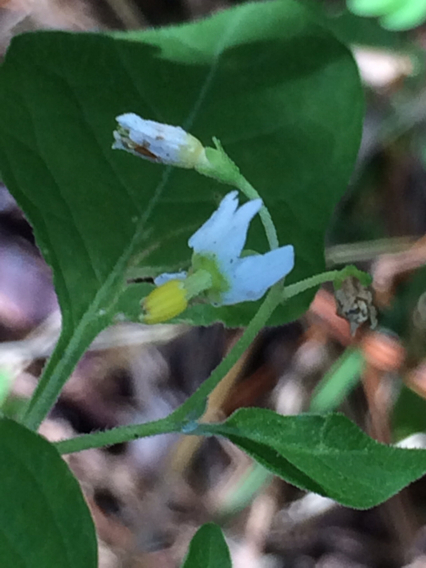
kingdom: Plantae
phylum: Tracheophyta
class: Magnoliopsida
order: Solanales
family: Solanaceae
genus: Solanum
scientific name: Solanum nigrescens
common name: Divine nightshade
